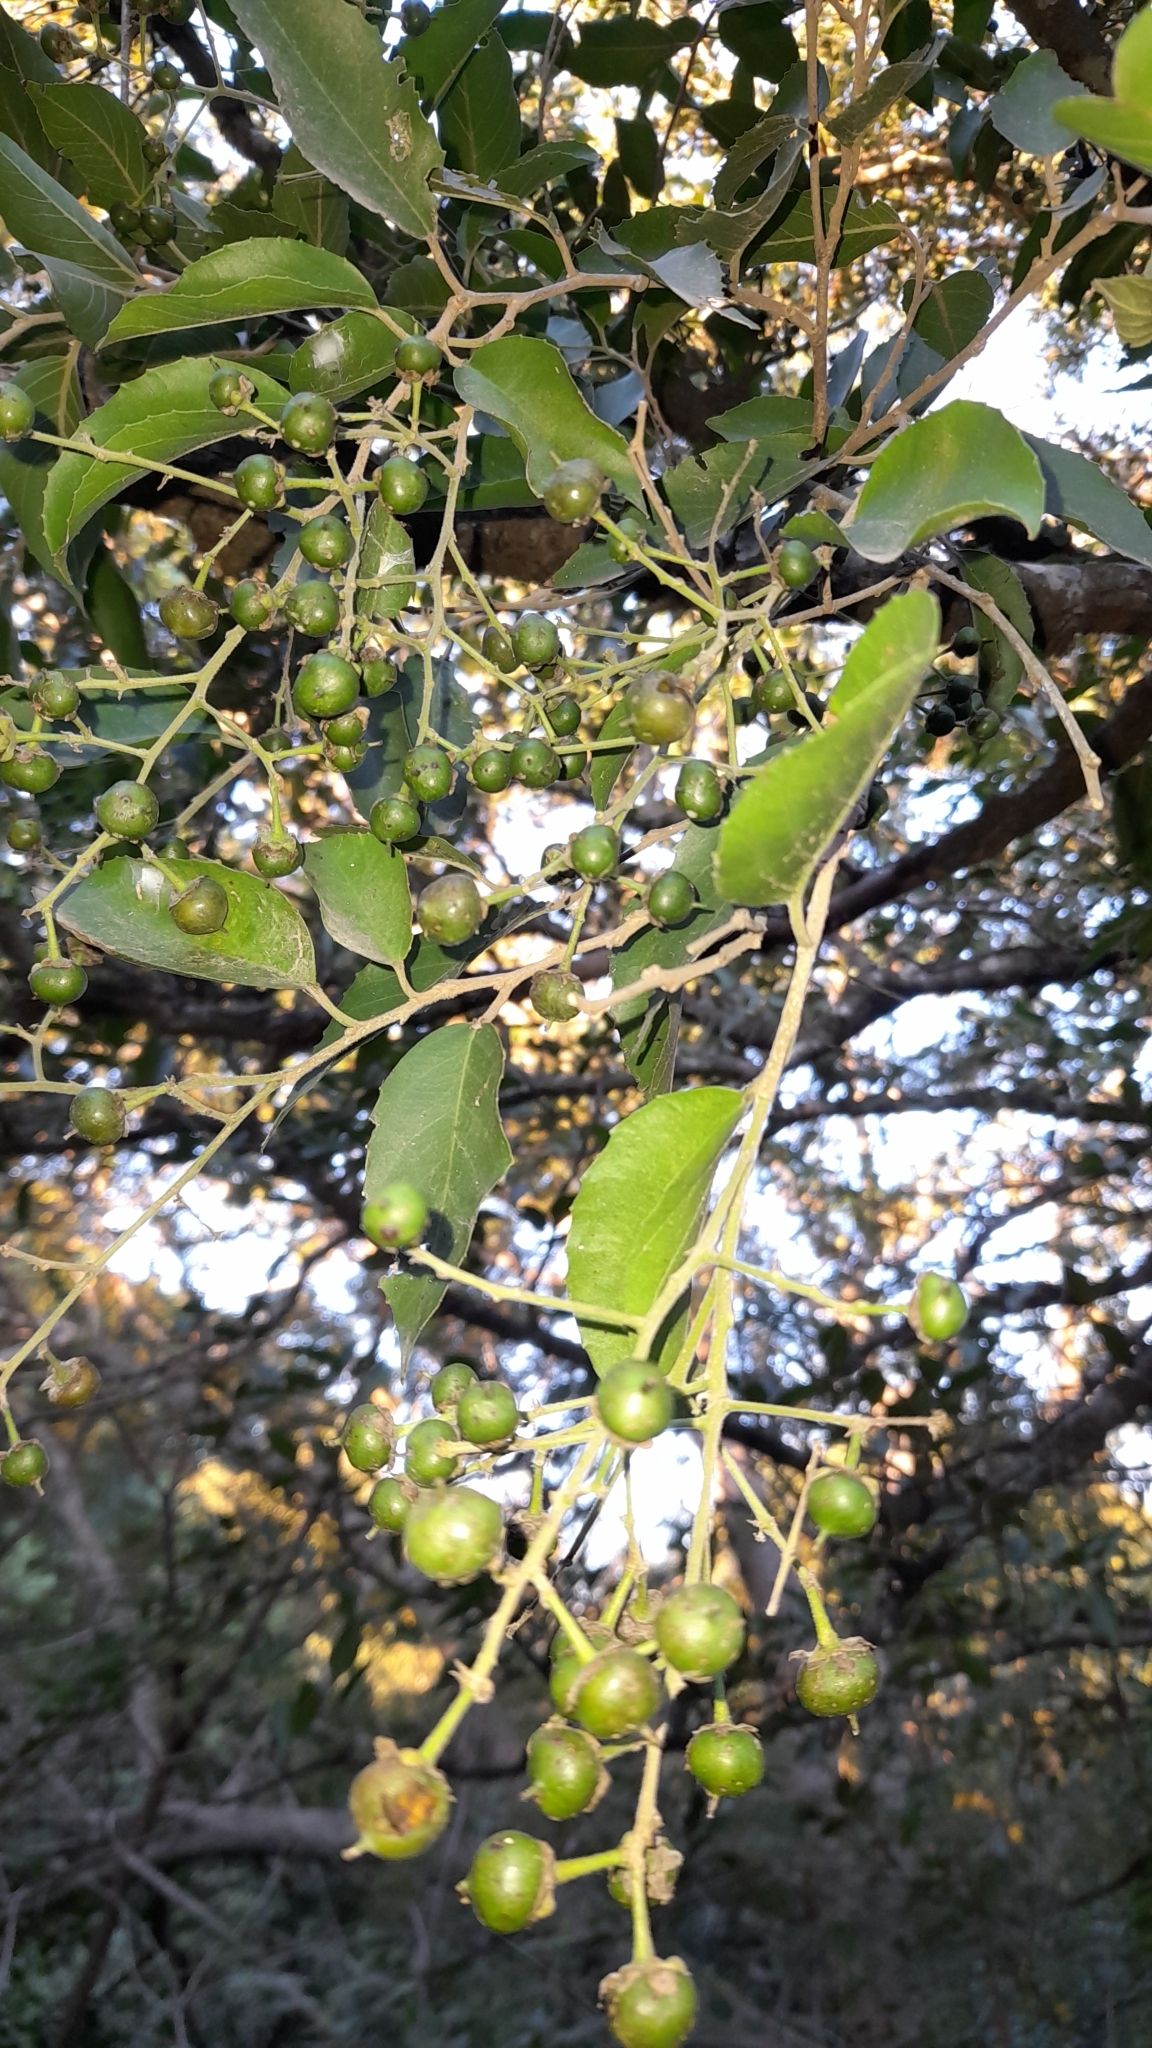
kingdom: Plantae
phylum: Tracheophyta
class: Magnoliopsida
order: Malpighiales
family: Salicaceae
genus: Banara
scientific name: Banara arguta
